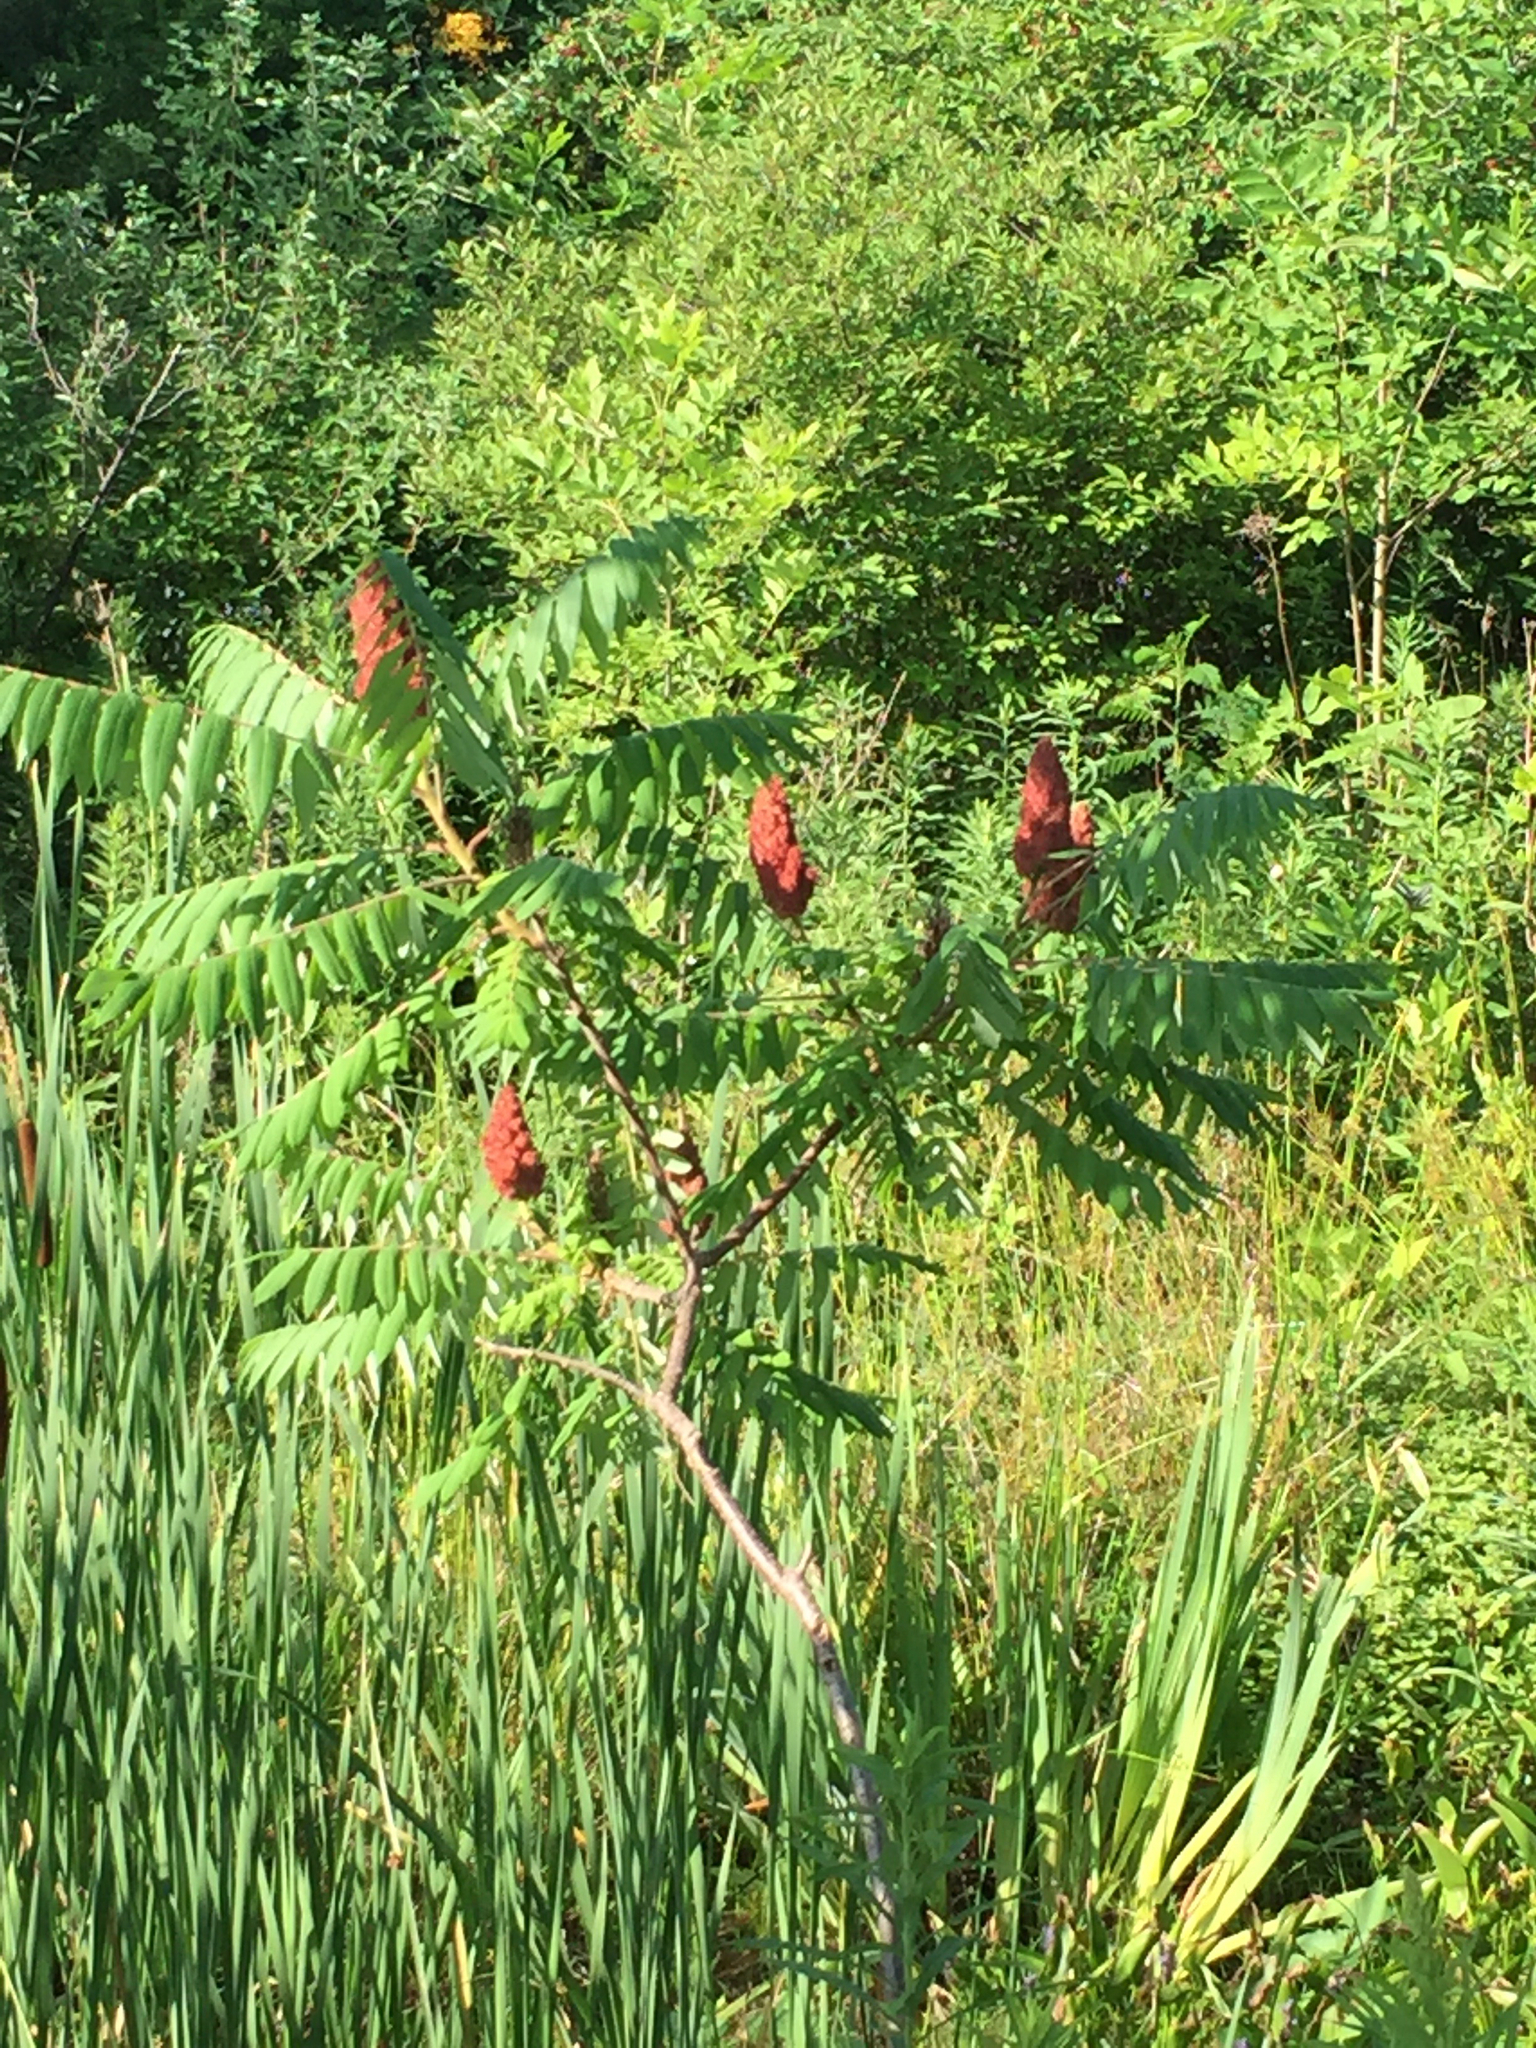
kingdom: Plantae
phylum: Tracheophyta
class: Magnoliopsida
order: Sapindales
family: Anacardiaceae
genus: Rhus
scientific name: Rhus typhina
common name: Staghorn sumac
